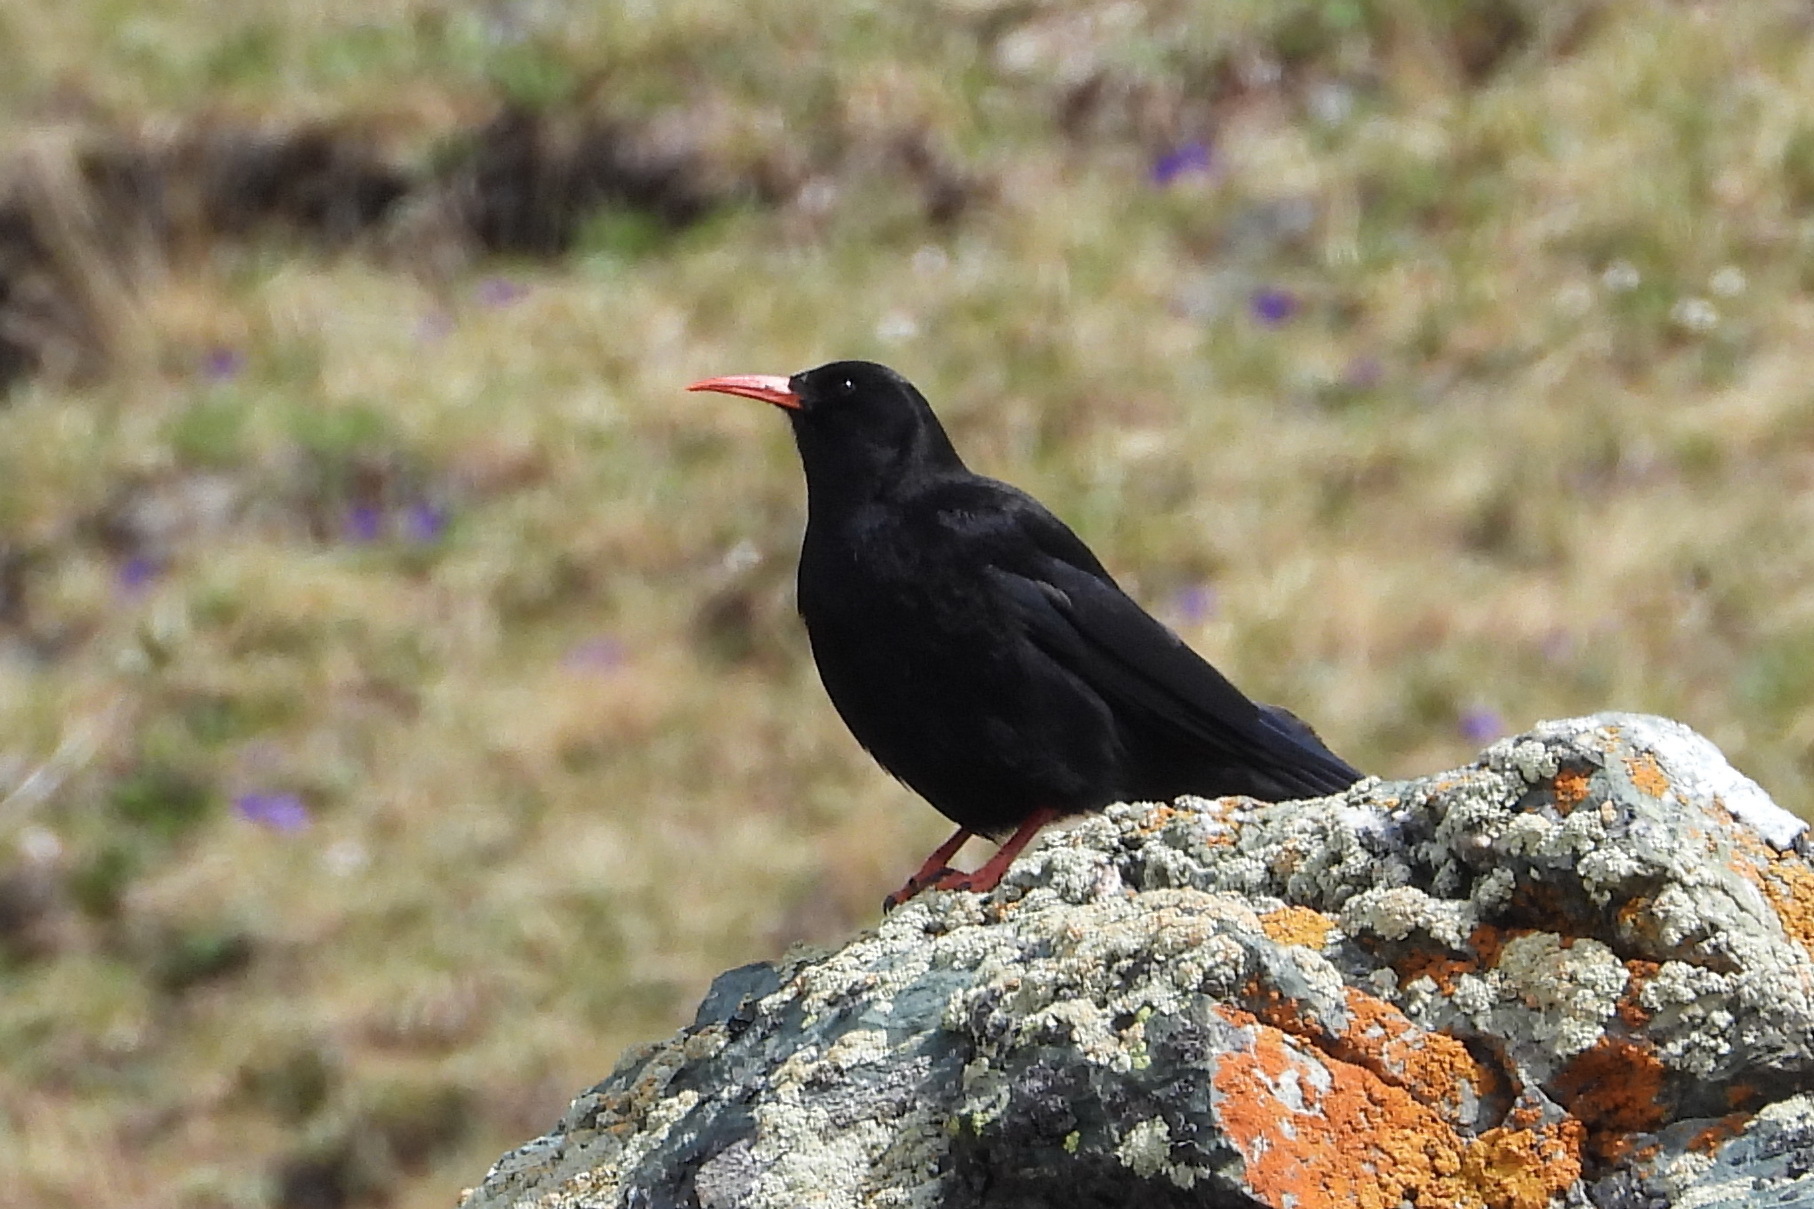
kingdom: Animalia
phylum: Chordata
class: Aves
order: Passeriformes
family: Corvidae
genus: Pyrrhocorax
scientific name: Pyrrhocorax pyrrhocorax
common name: Red-billed chough
